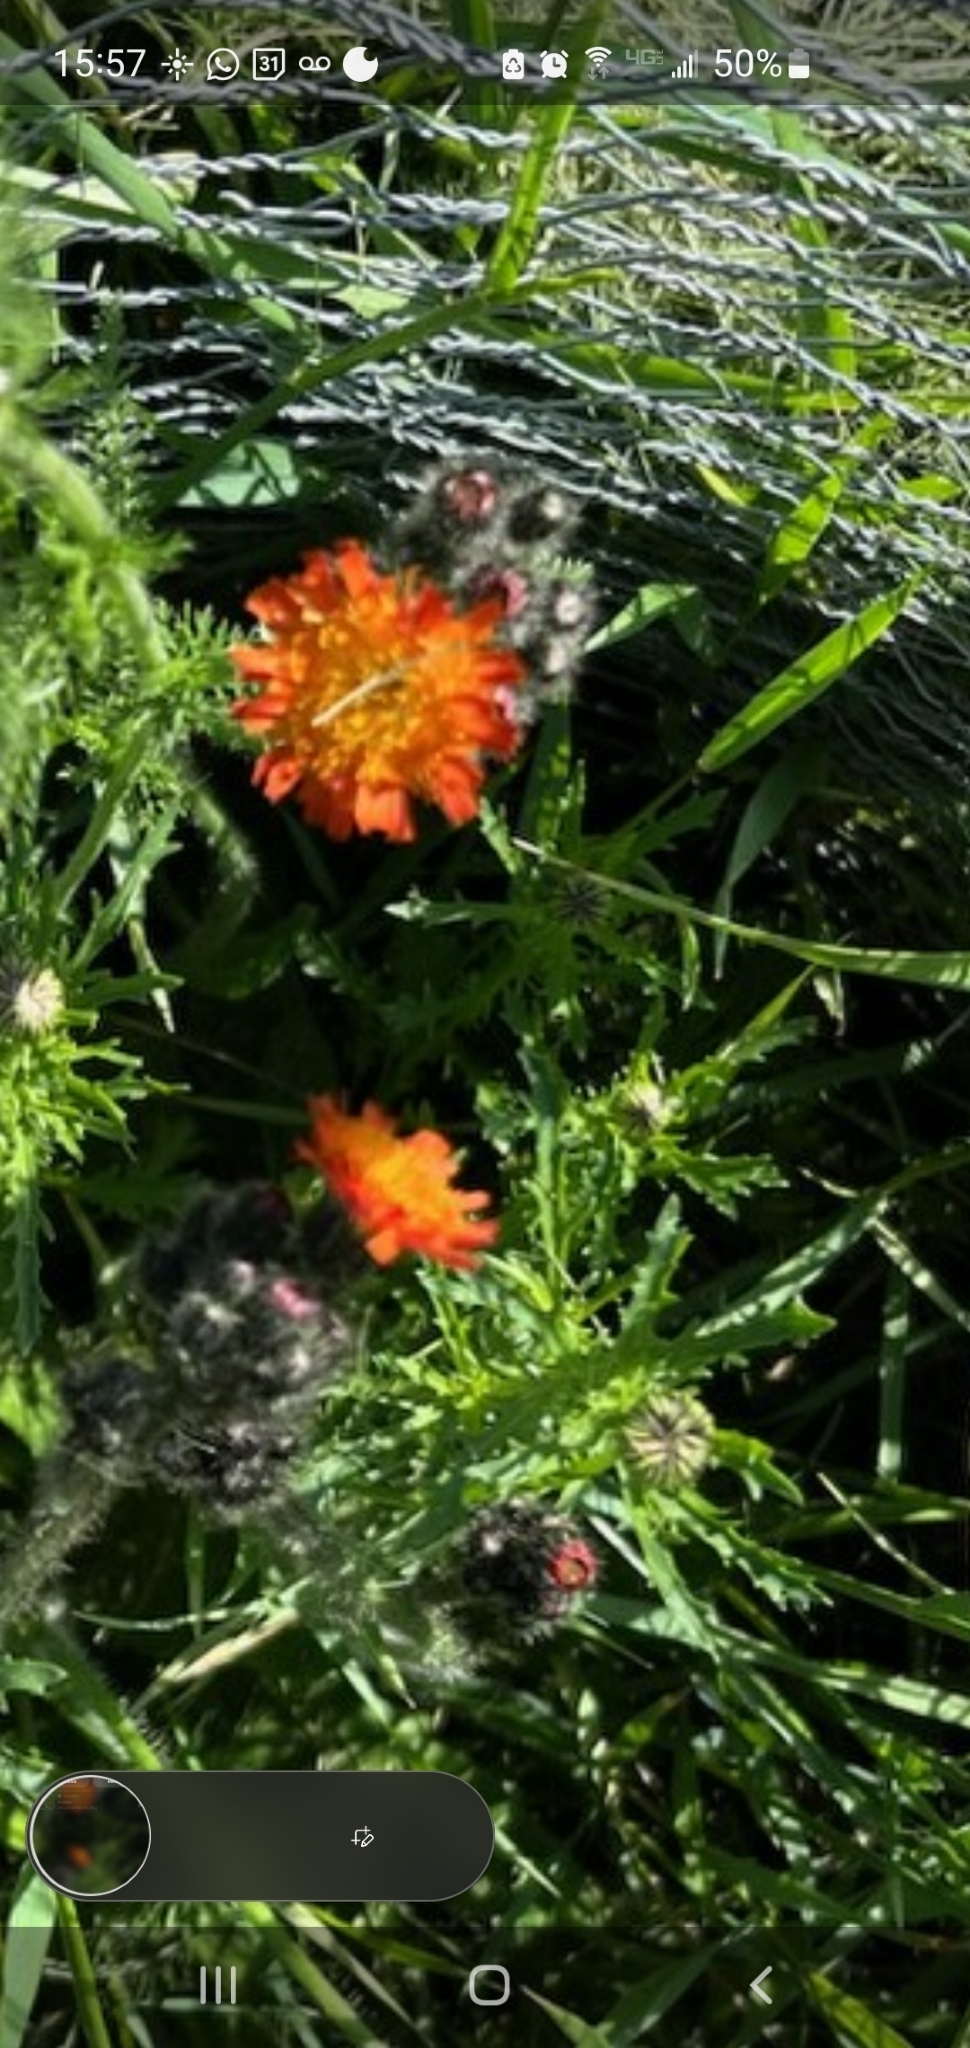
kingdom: Plantae
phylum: Tracheophyta
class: Magnoliopsida
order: Asterales
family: Asteraceae
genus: Pilosella
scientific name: Pilosella aurantiaca
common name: Fox-and-cubs
